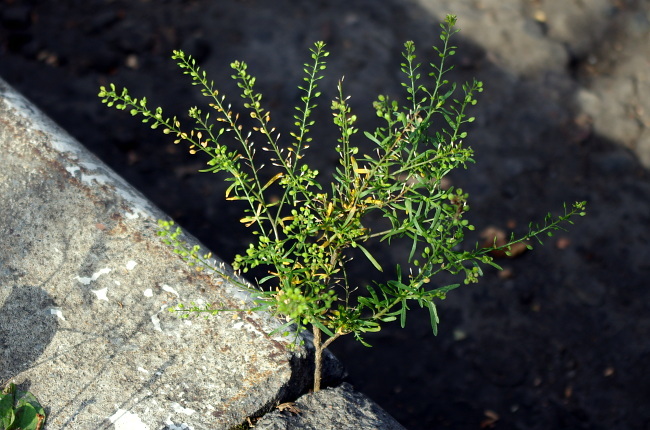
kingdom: Plantae
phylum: Tracheophyta
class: Magnoliopsida
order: Brassicales
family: Brassicaceae
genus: Lepidium
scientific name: Lepidium ruderale
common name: Narrow-leaved pepperwort
